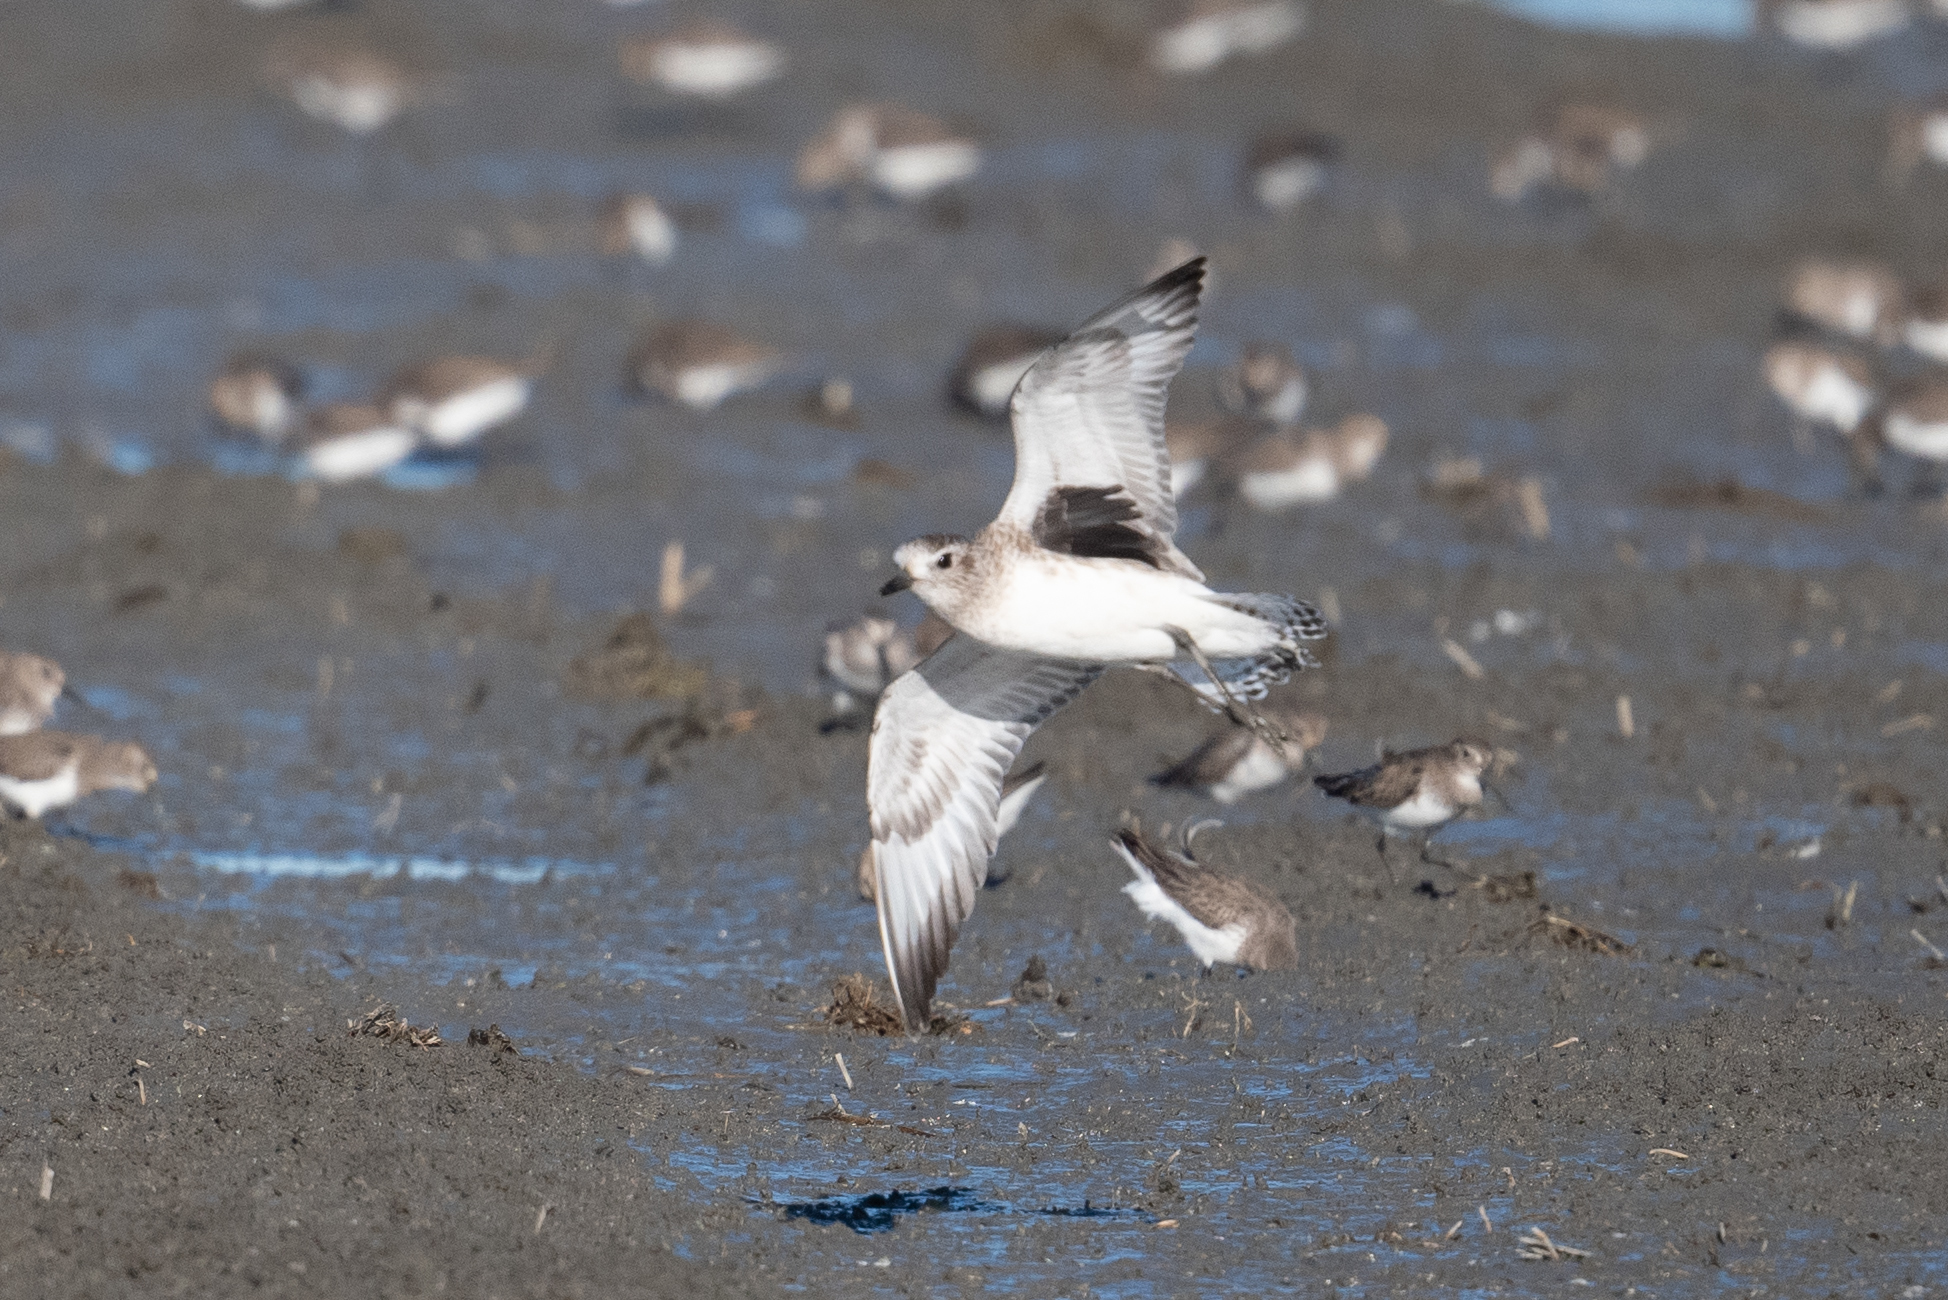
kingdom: Animalia
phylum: Chordata
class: Aves
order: Charadriiformes
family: Charadriidae
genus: Pluvialis
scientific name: Pluvialis squatarola
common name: Grey plover
